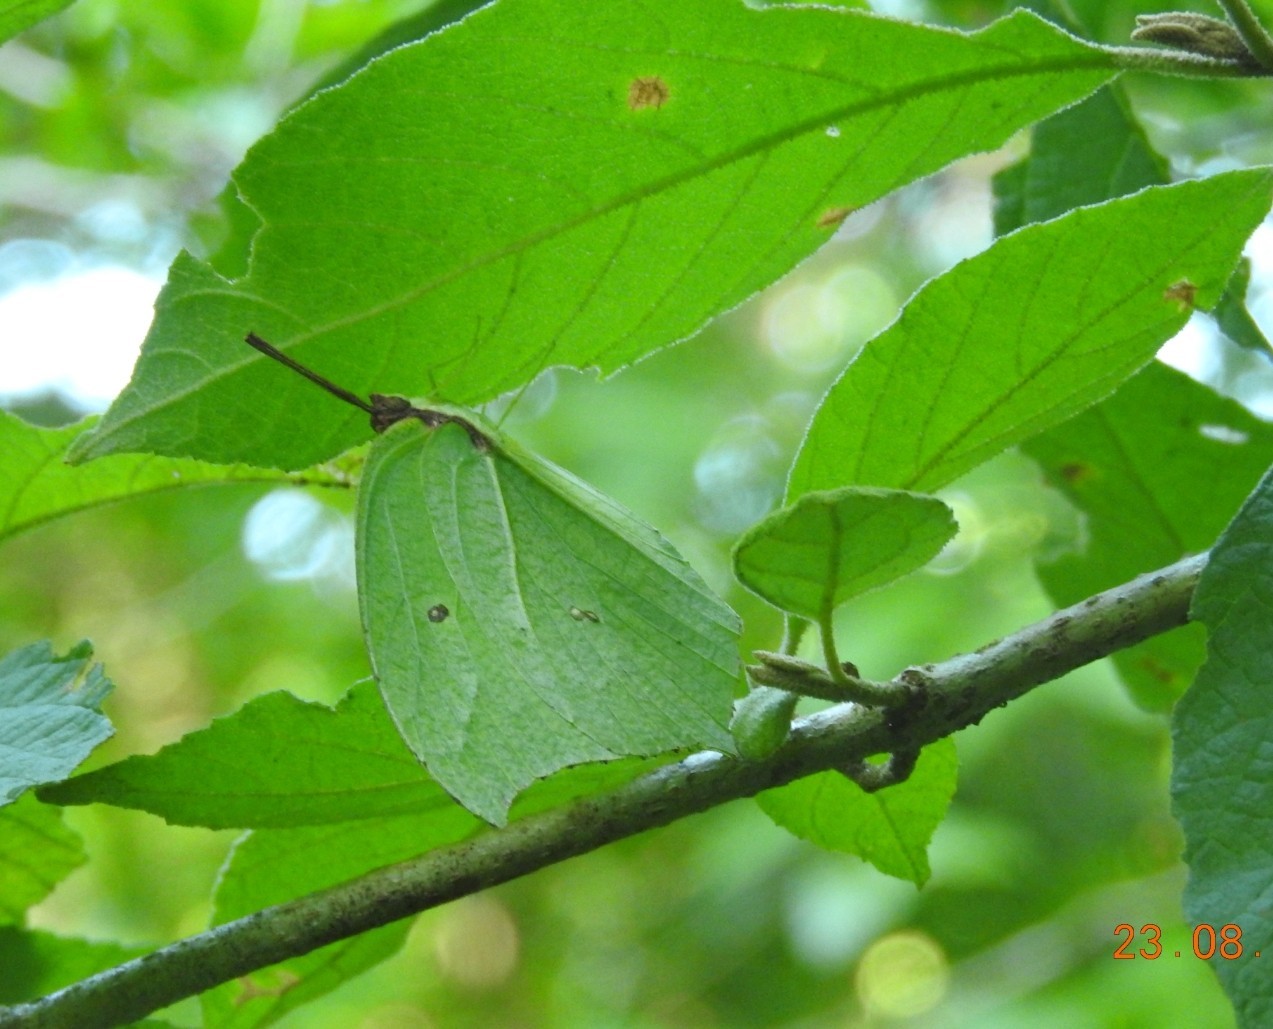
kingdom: Animalia
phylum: Arthropoda
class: Insecta
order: Lepidoptera
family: Pieridae
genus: Anteos
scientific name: Anteos maerula
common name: Angled sulphur
